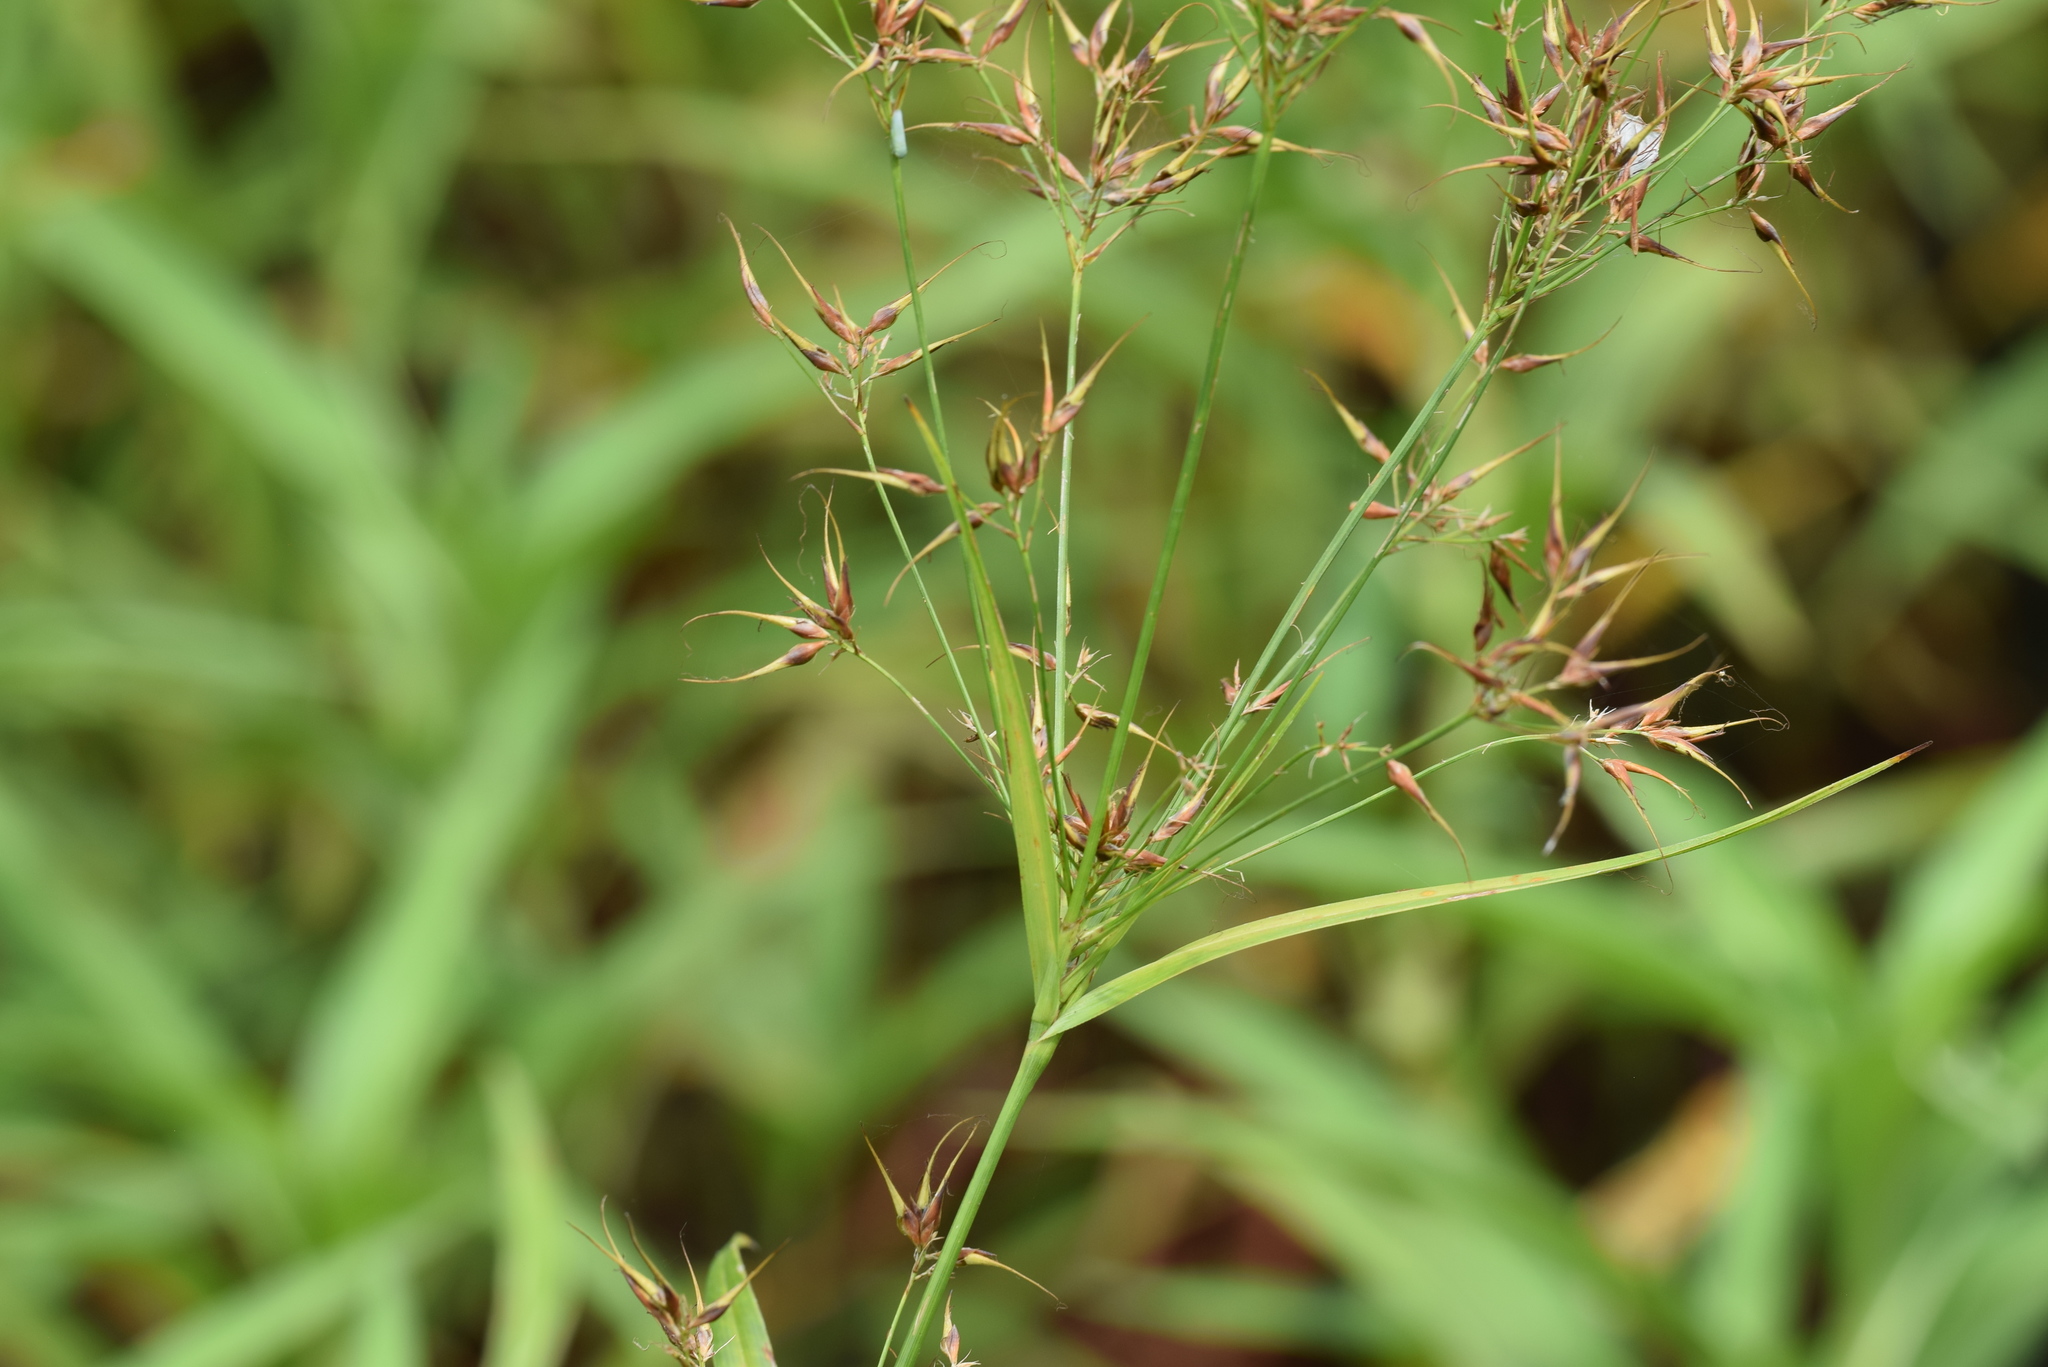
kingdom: Plantae
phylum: Tracheophyta
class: Liliopsida
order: Poales
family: Cyperaceae
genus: Rhynchospora
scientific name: Rhynchospora corniculata
